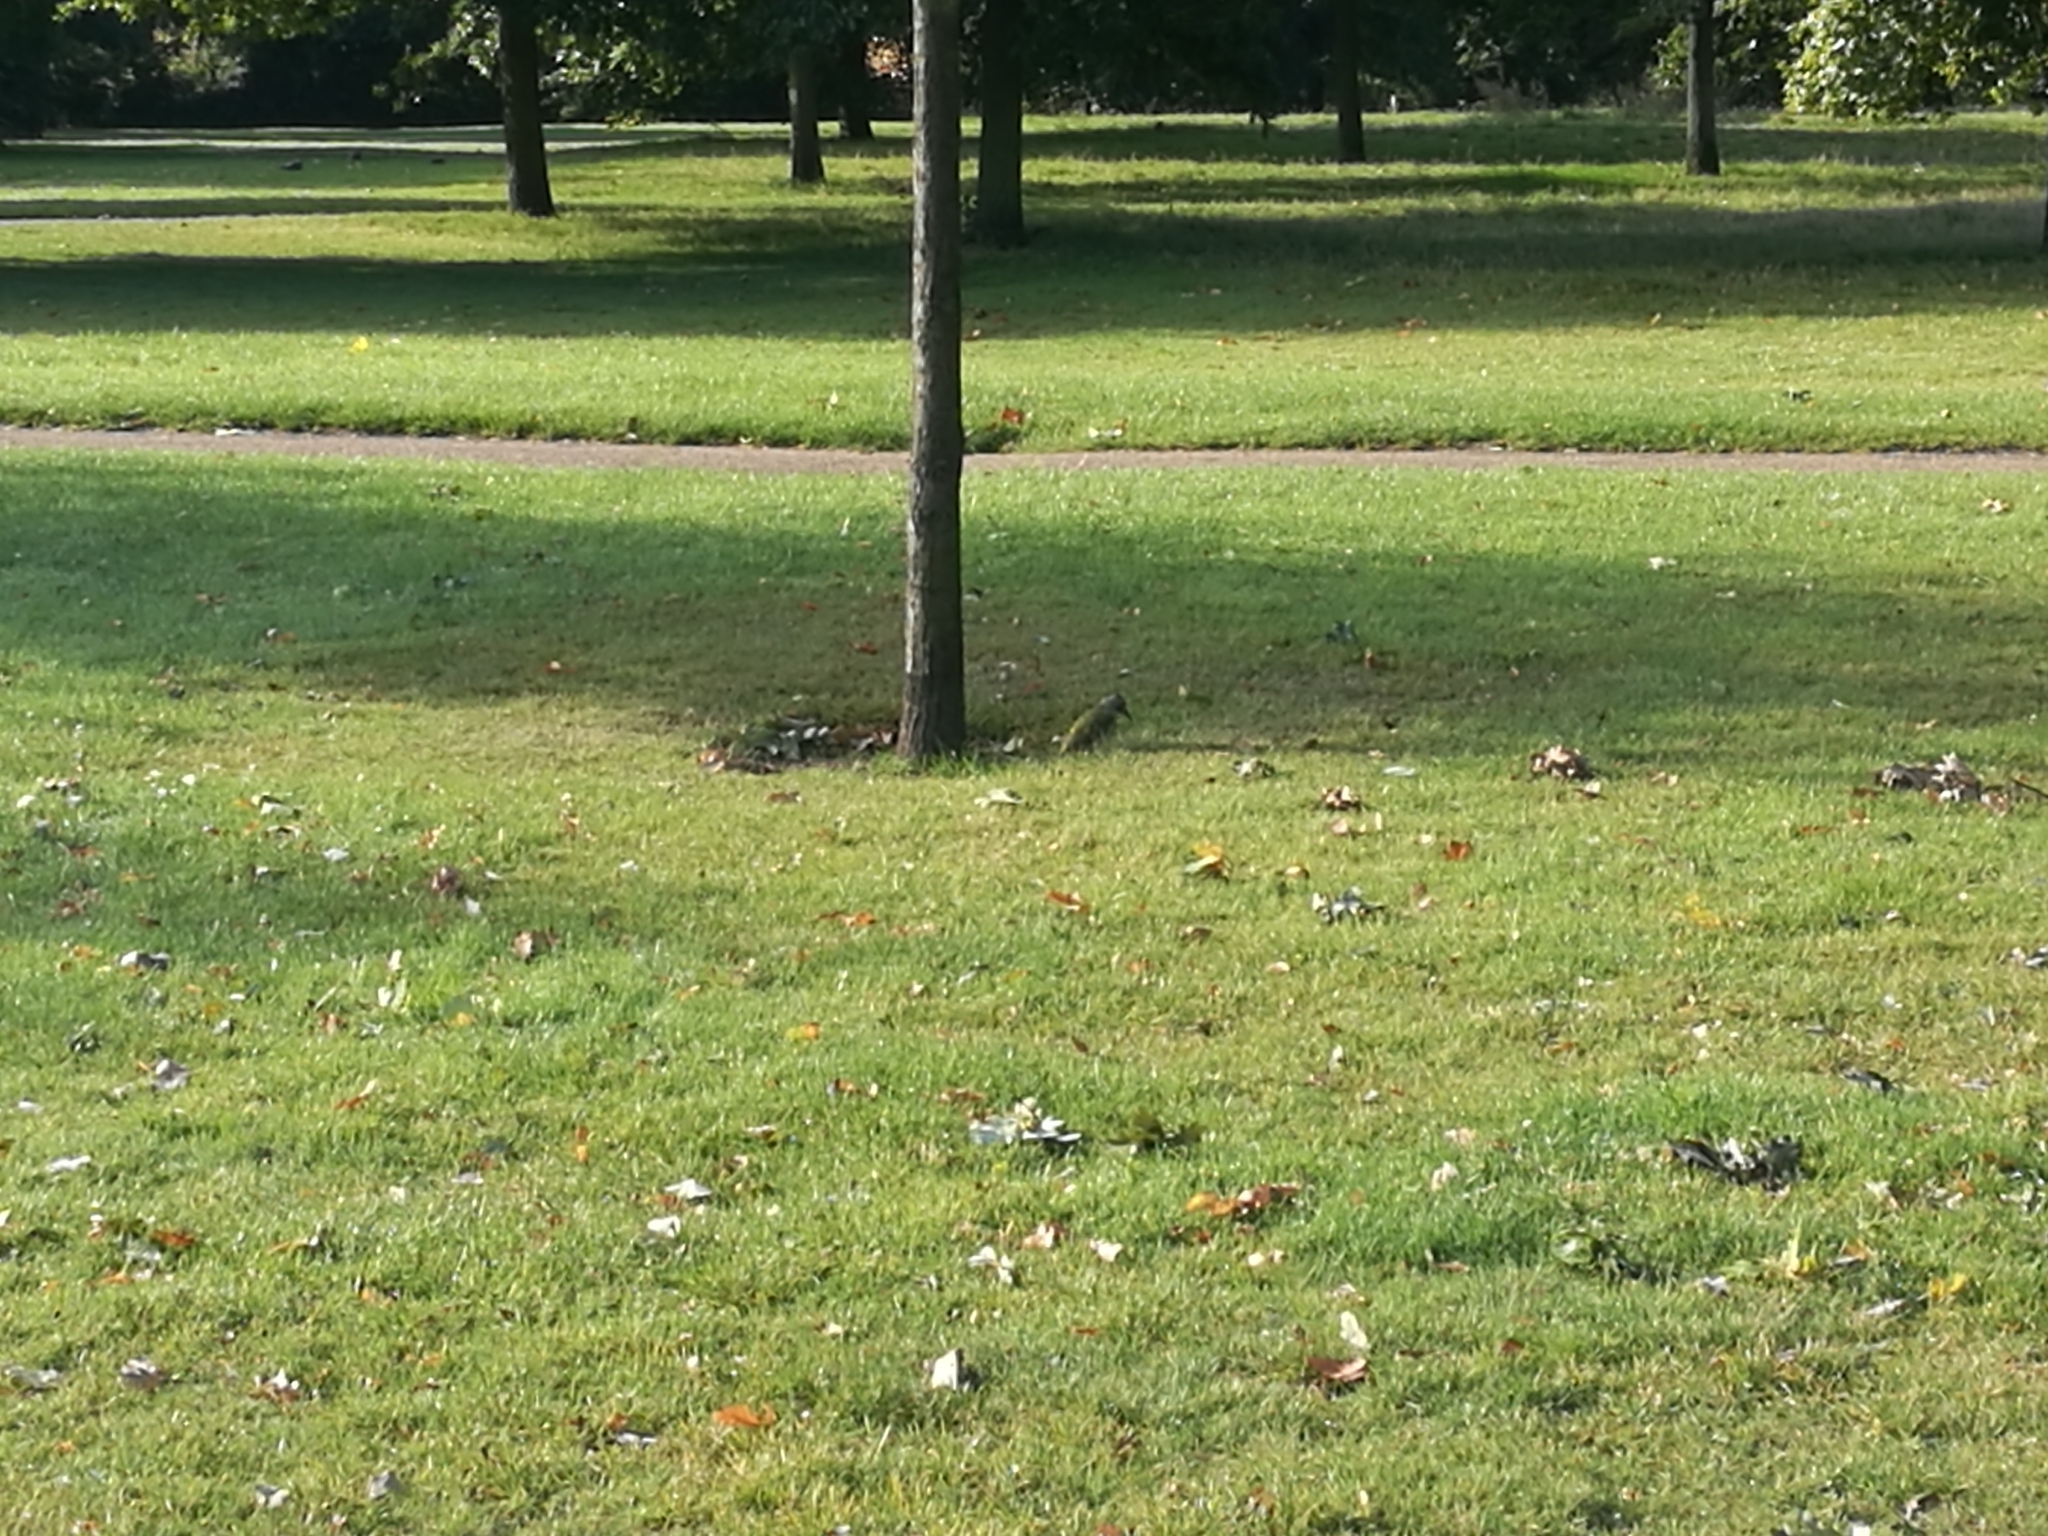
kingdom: Animalia
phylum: Chordata
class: Aves
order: Piciformes
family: Picidae
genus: Picus
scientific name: Picus viridis
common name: European green woodpecker
